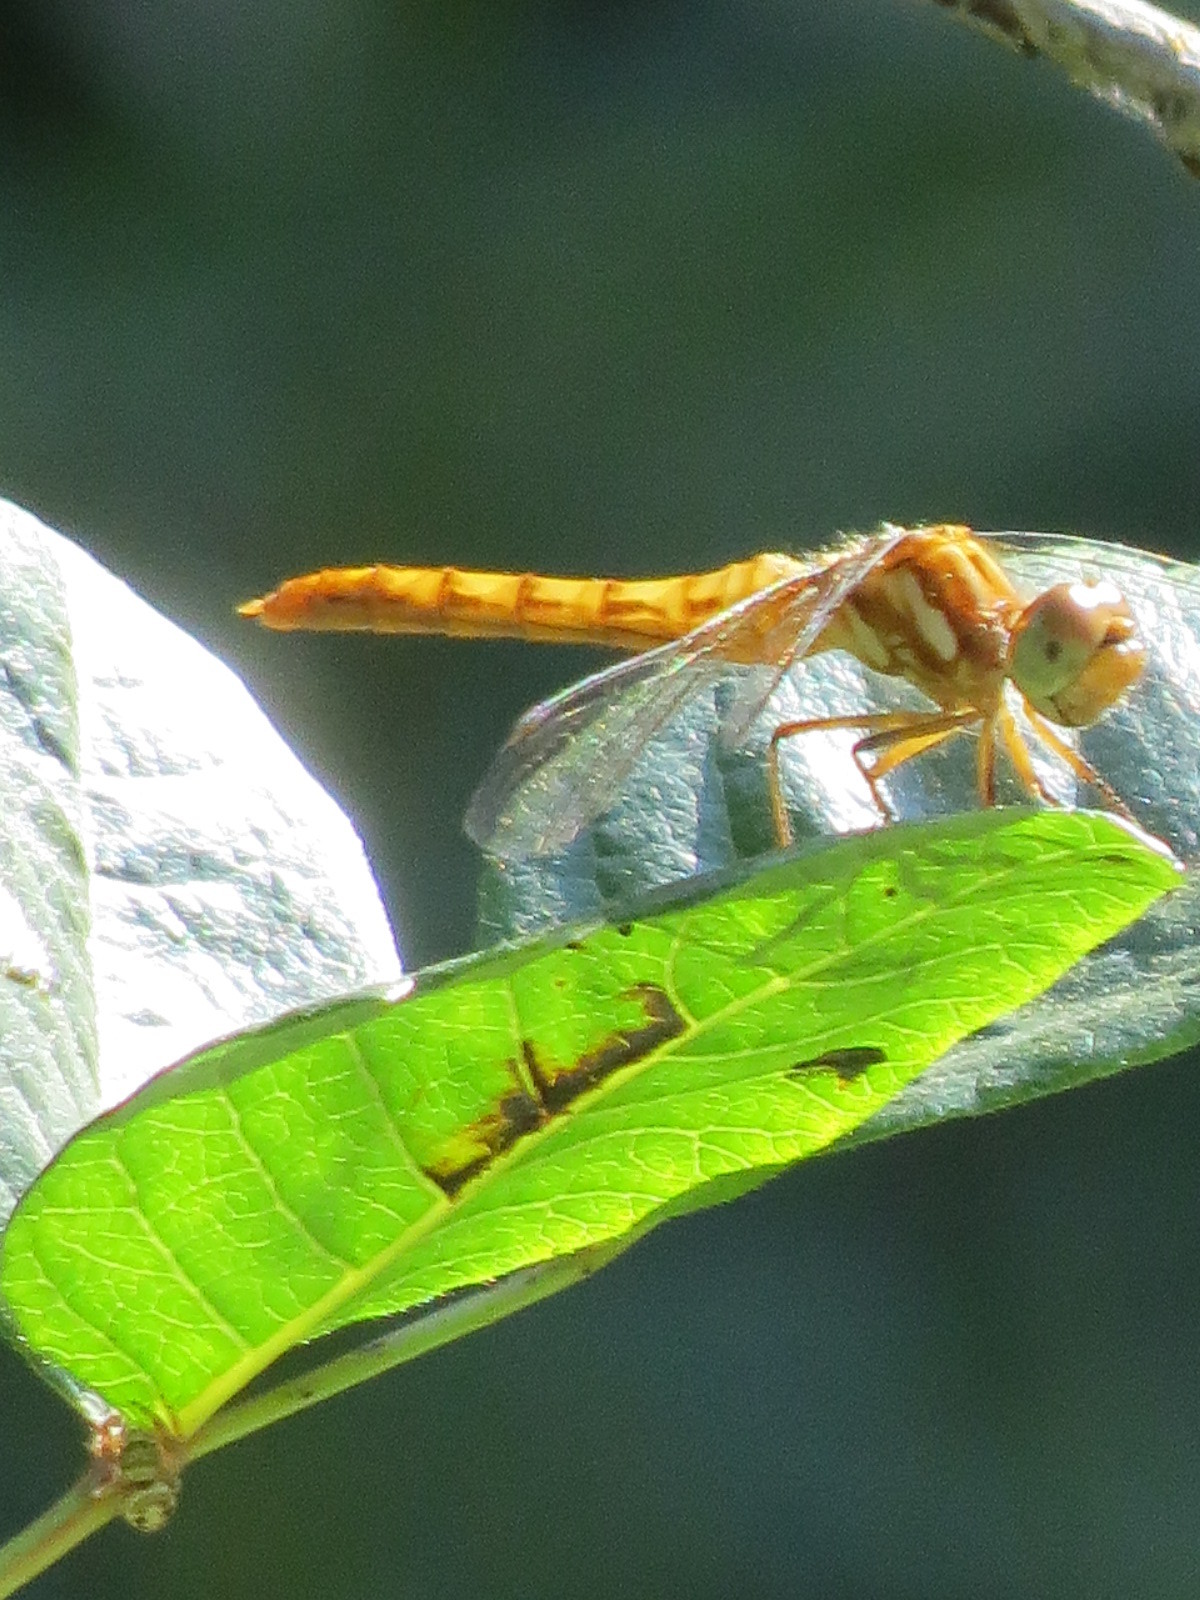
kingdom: Animalia
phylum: Arthropoda
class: Insecta
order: Odonata
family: Libellulidae
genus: Sympetrum
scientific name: Sympetrum pallipes
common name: Striped meadowhawk
